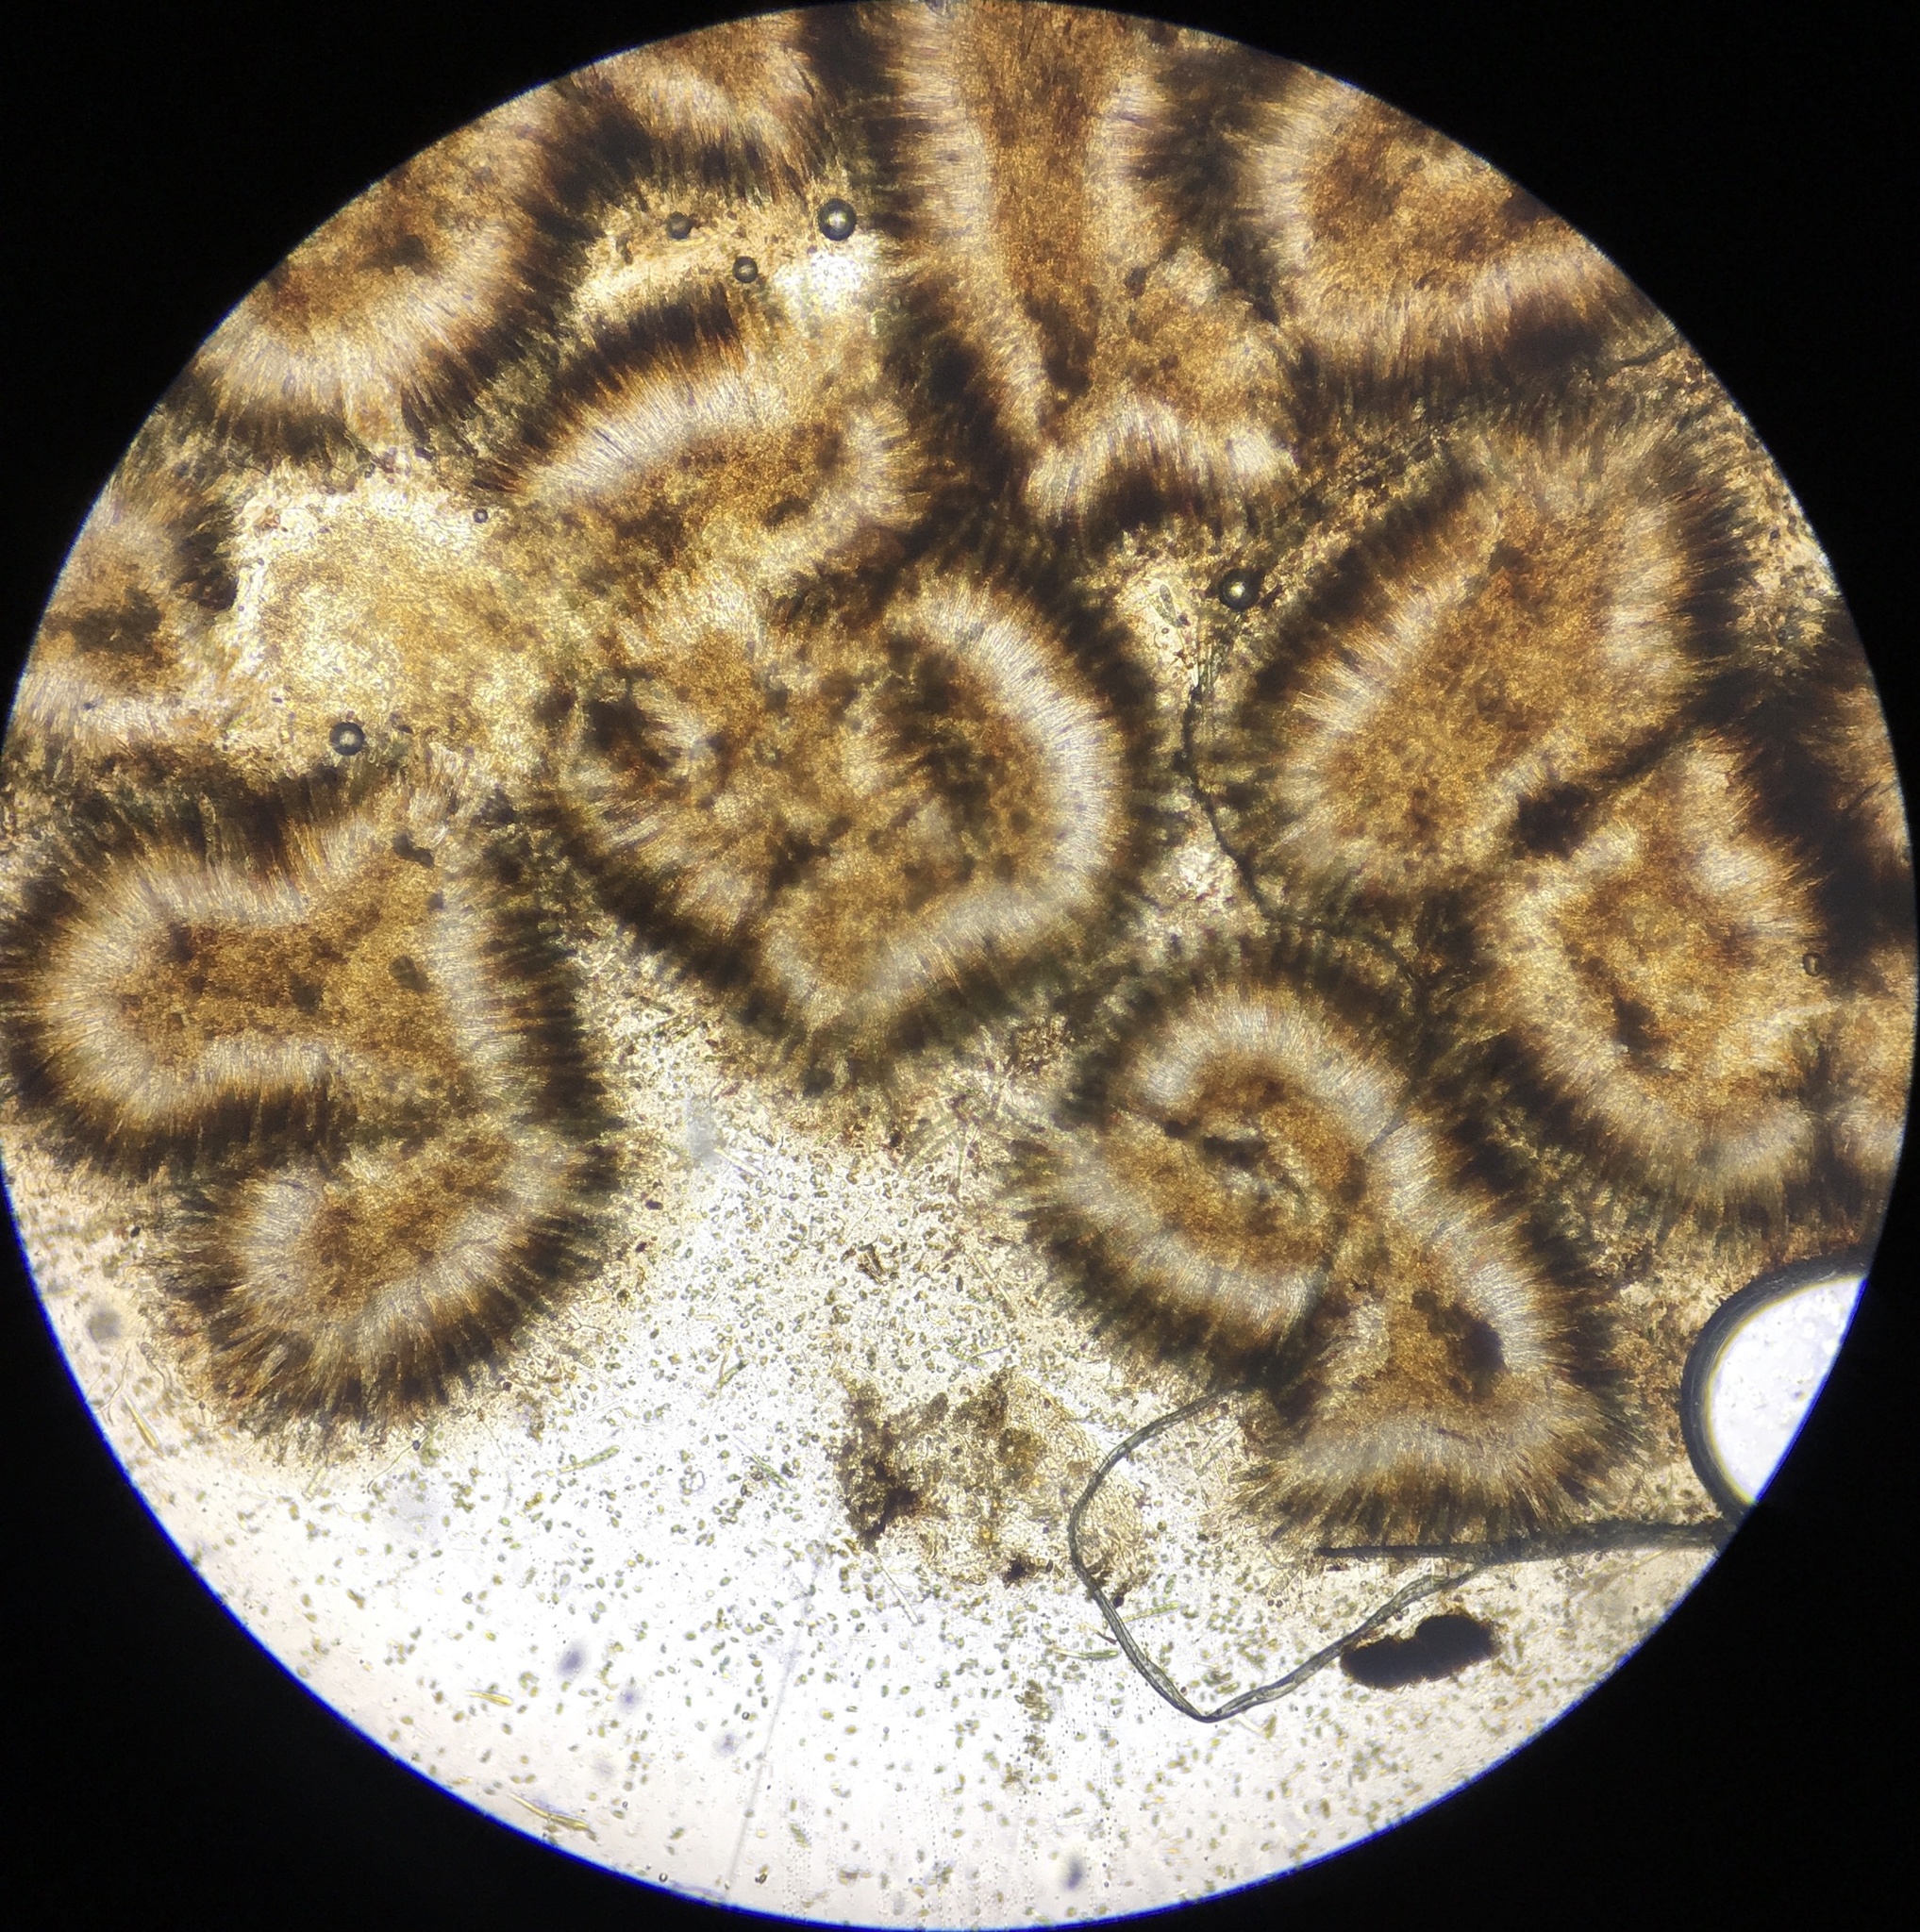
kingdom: Fungi
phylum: Ascomycota
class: Leotiomycetes
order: Phacidiales
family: Phacidiaceae
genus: Bulgaria
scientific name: Bulgaria inquinans
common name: Black bulgar
